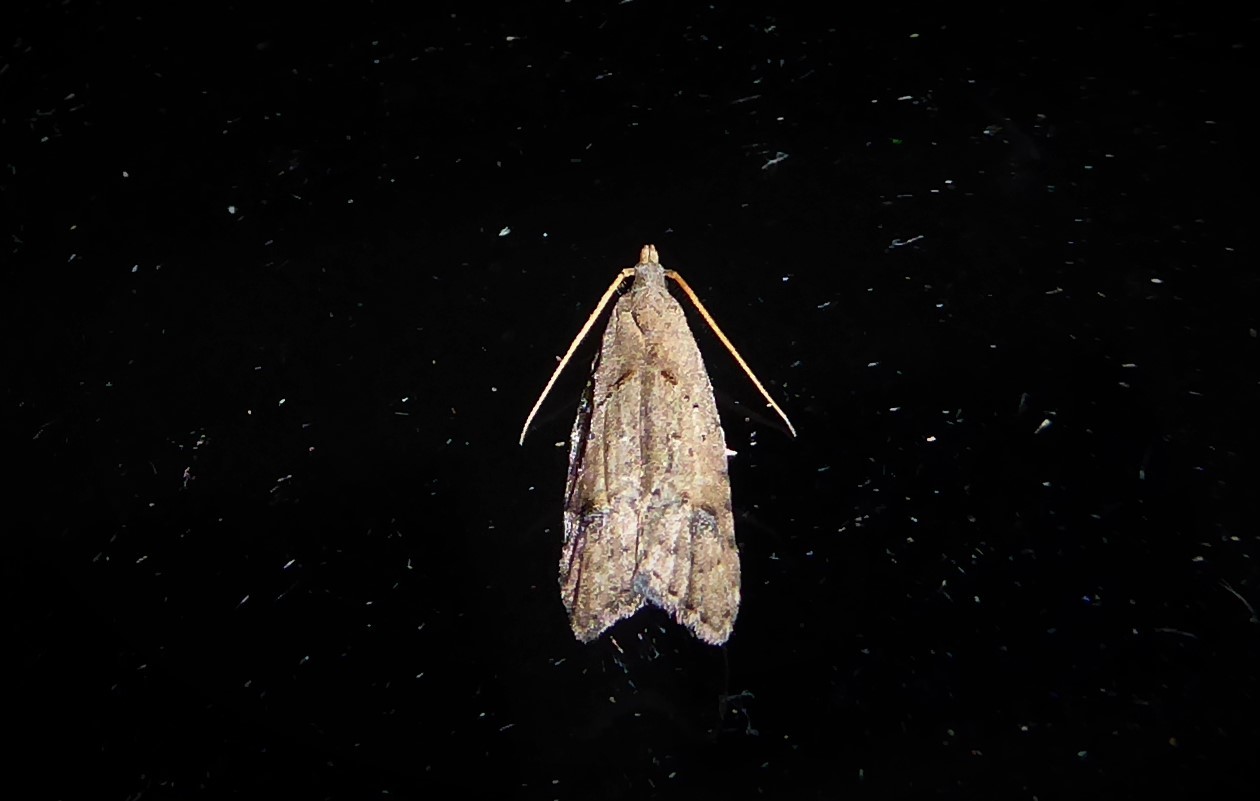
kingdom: Animalia
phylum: Arthropoda
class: Insecta
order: Lepidoptera
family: Carposinidae
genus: Carposina
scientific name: Carposina rubophaga
